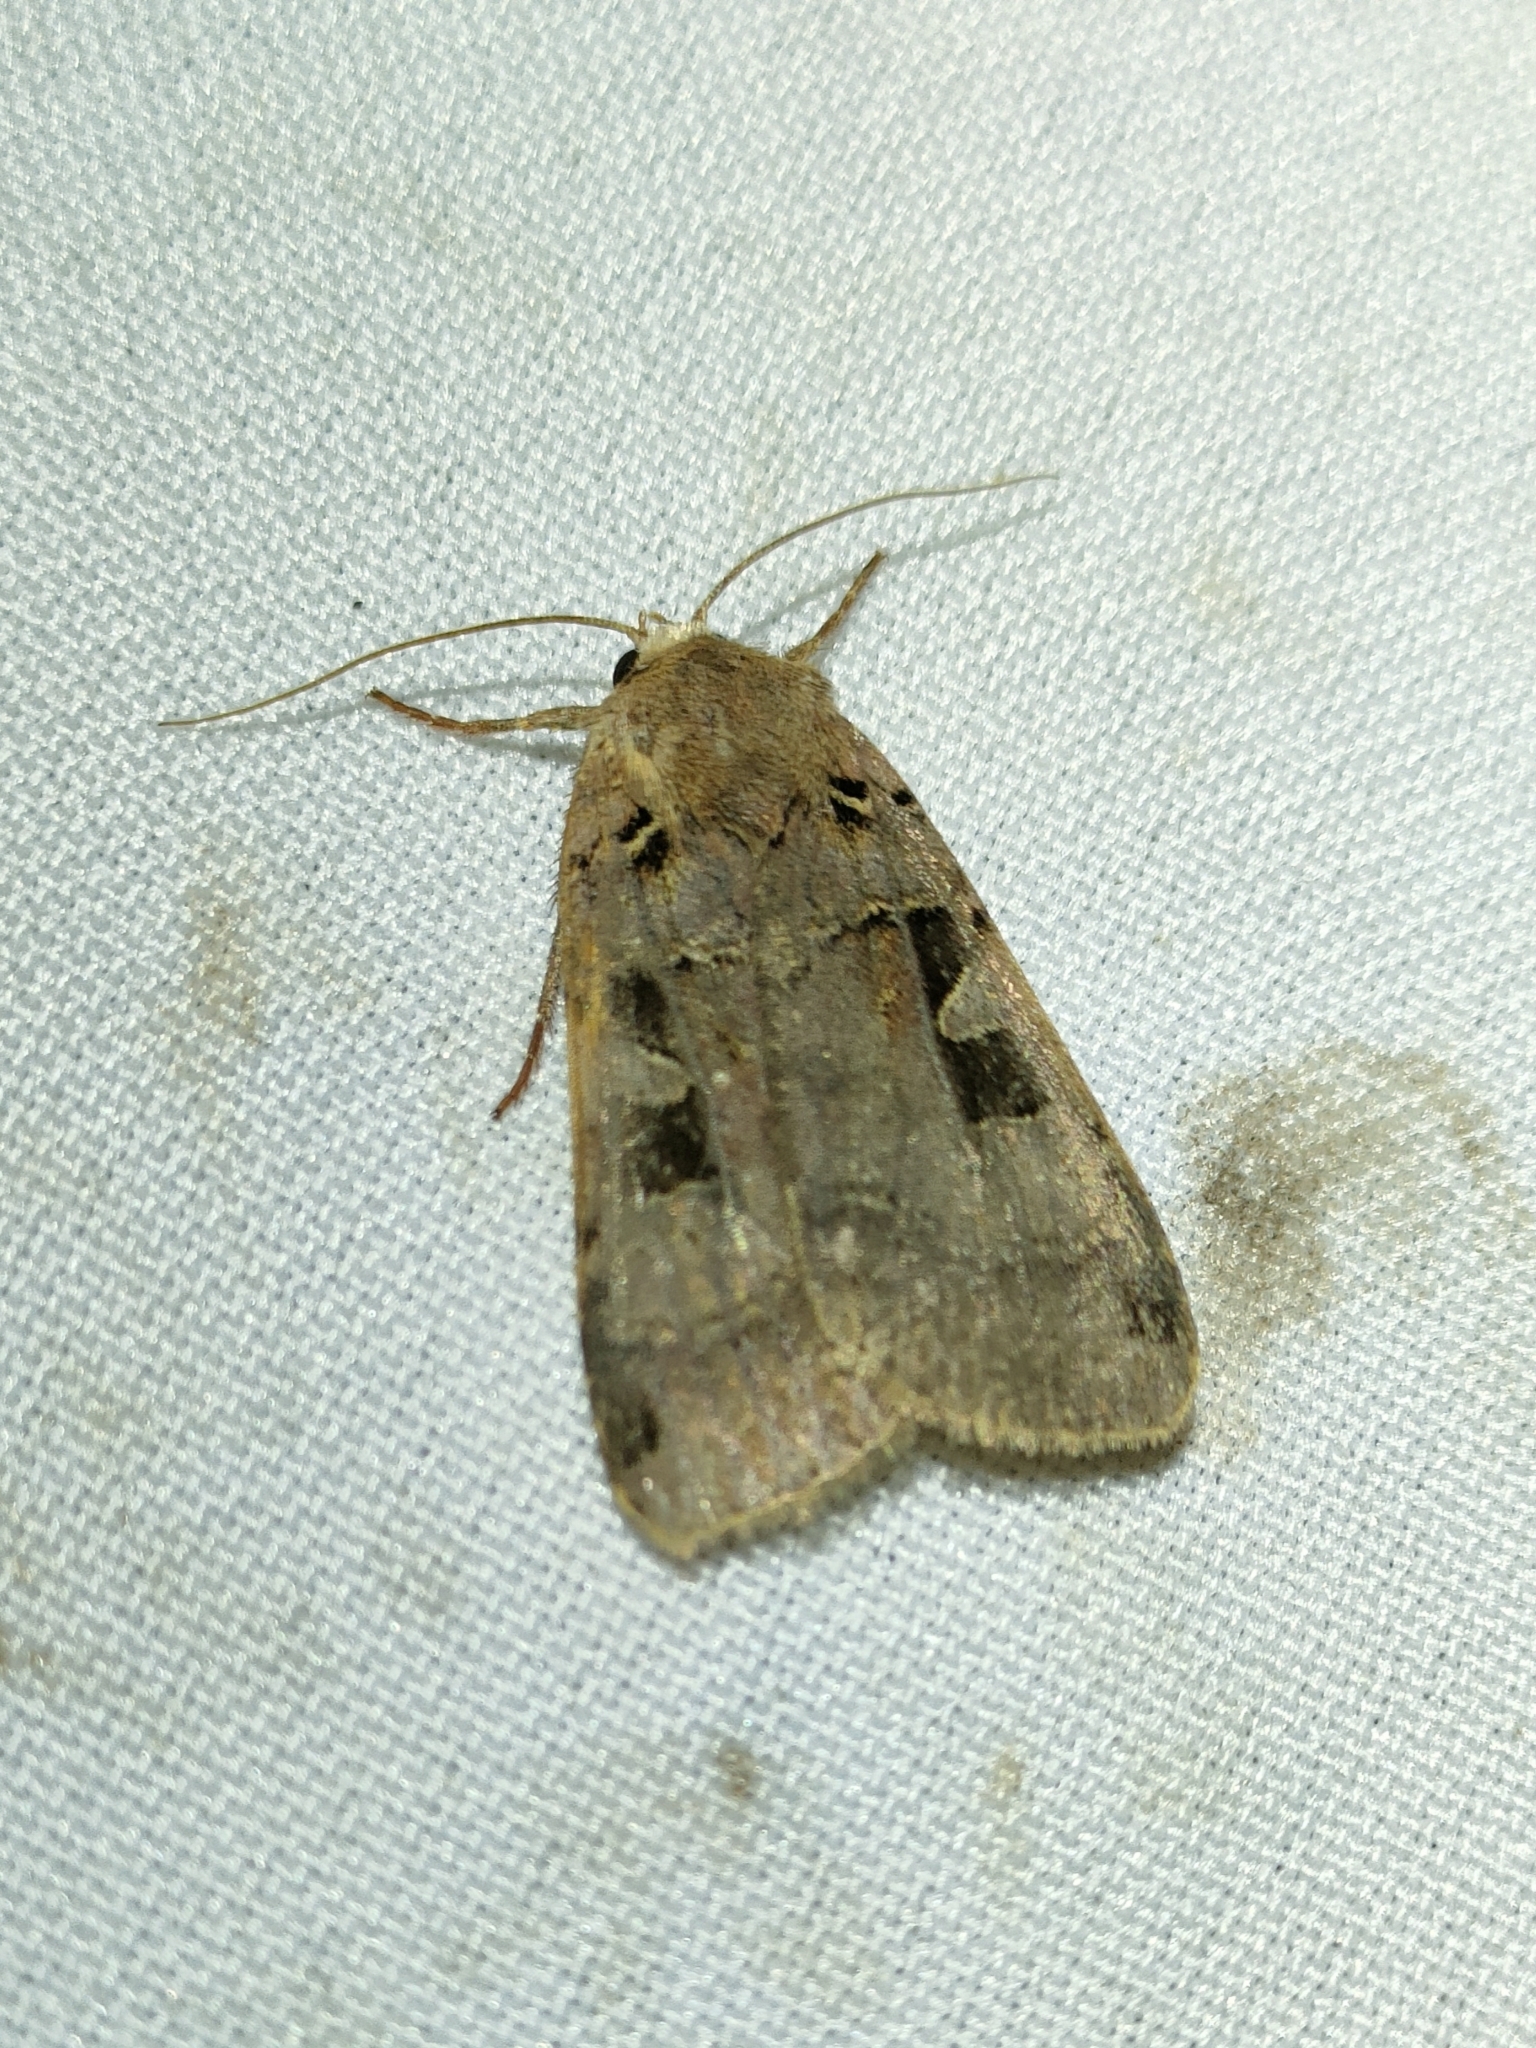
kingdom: Animalia
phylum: Arthropoda
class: Insecta
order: Lepidoptera
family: Noctuidae
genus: Xestia
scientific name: Xestia triangulum
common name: Double square-spot
